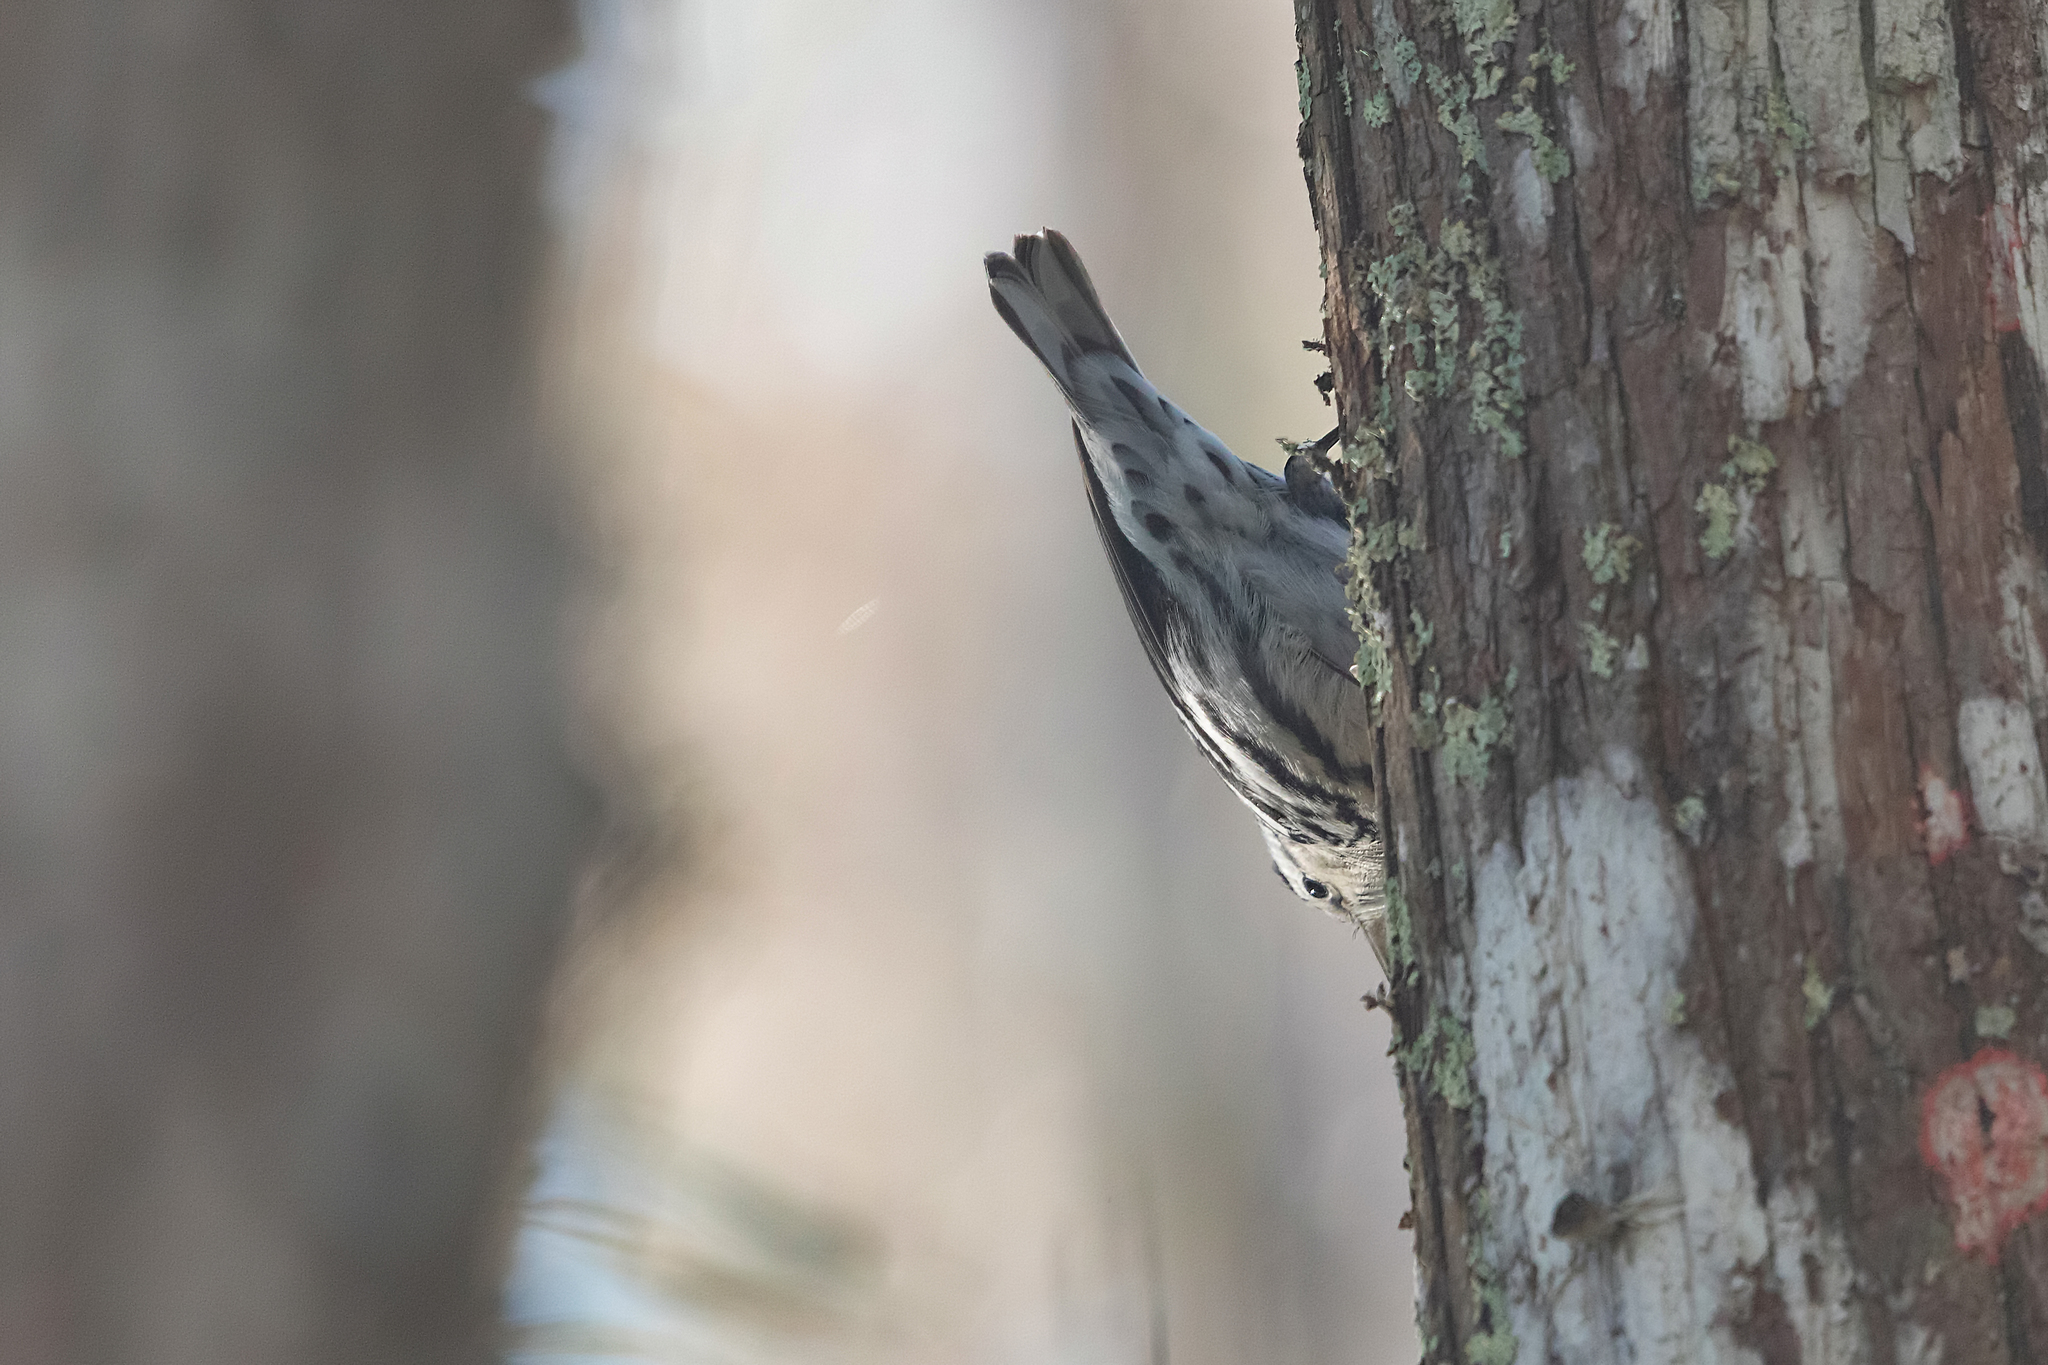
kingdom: Animalia
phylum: Chordata
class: Aves
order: Passeriformes
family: Parulidae
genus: Mniotilta
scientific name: Mniotilta varia
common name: Black-and-white warbler
